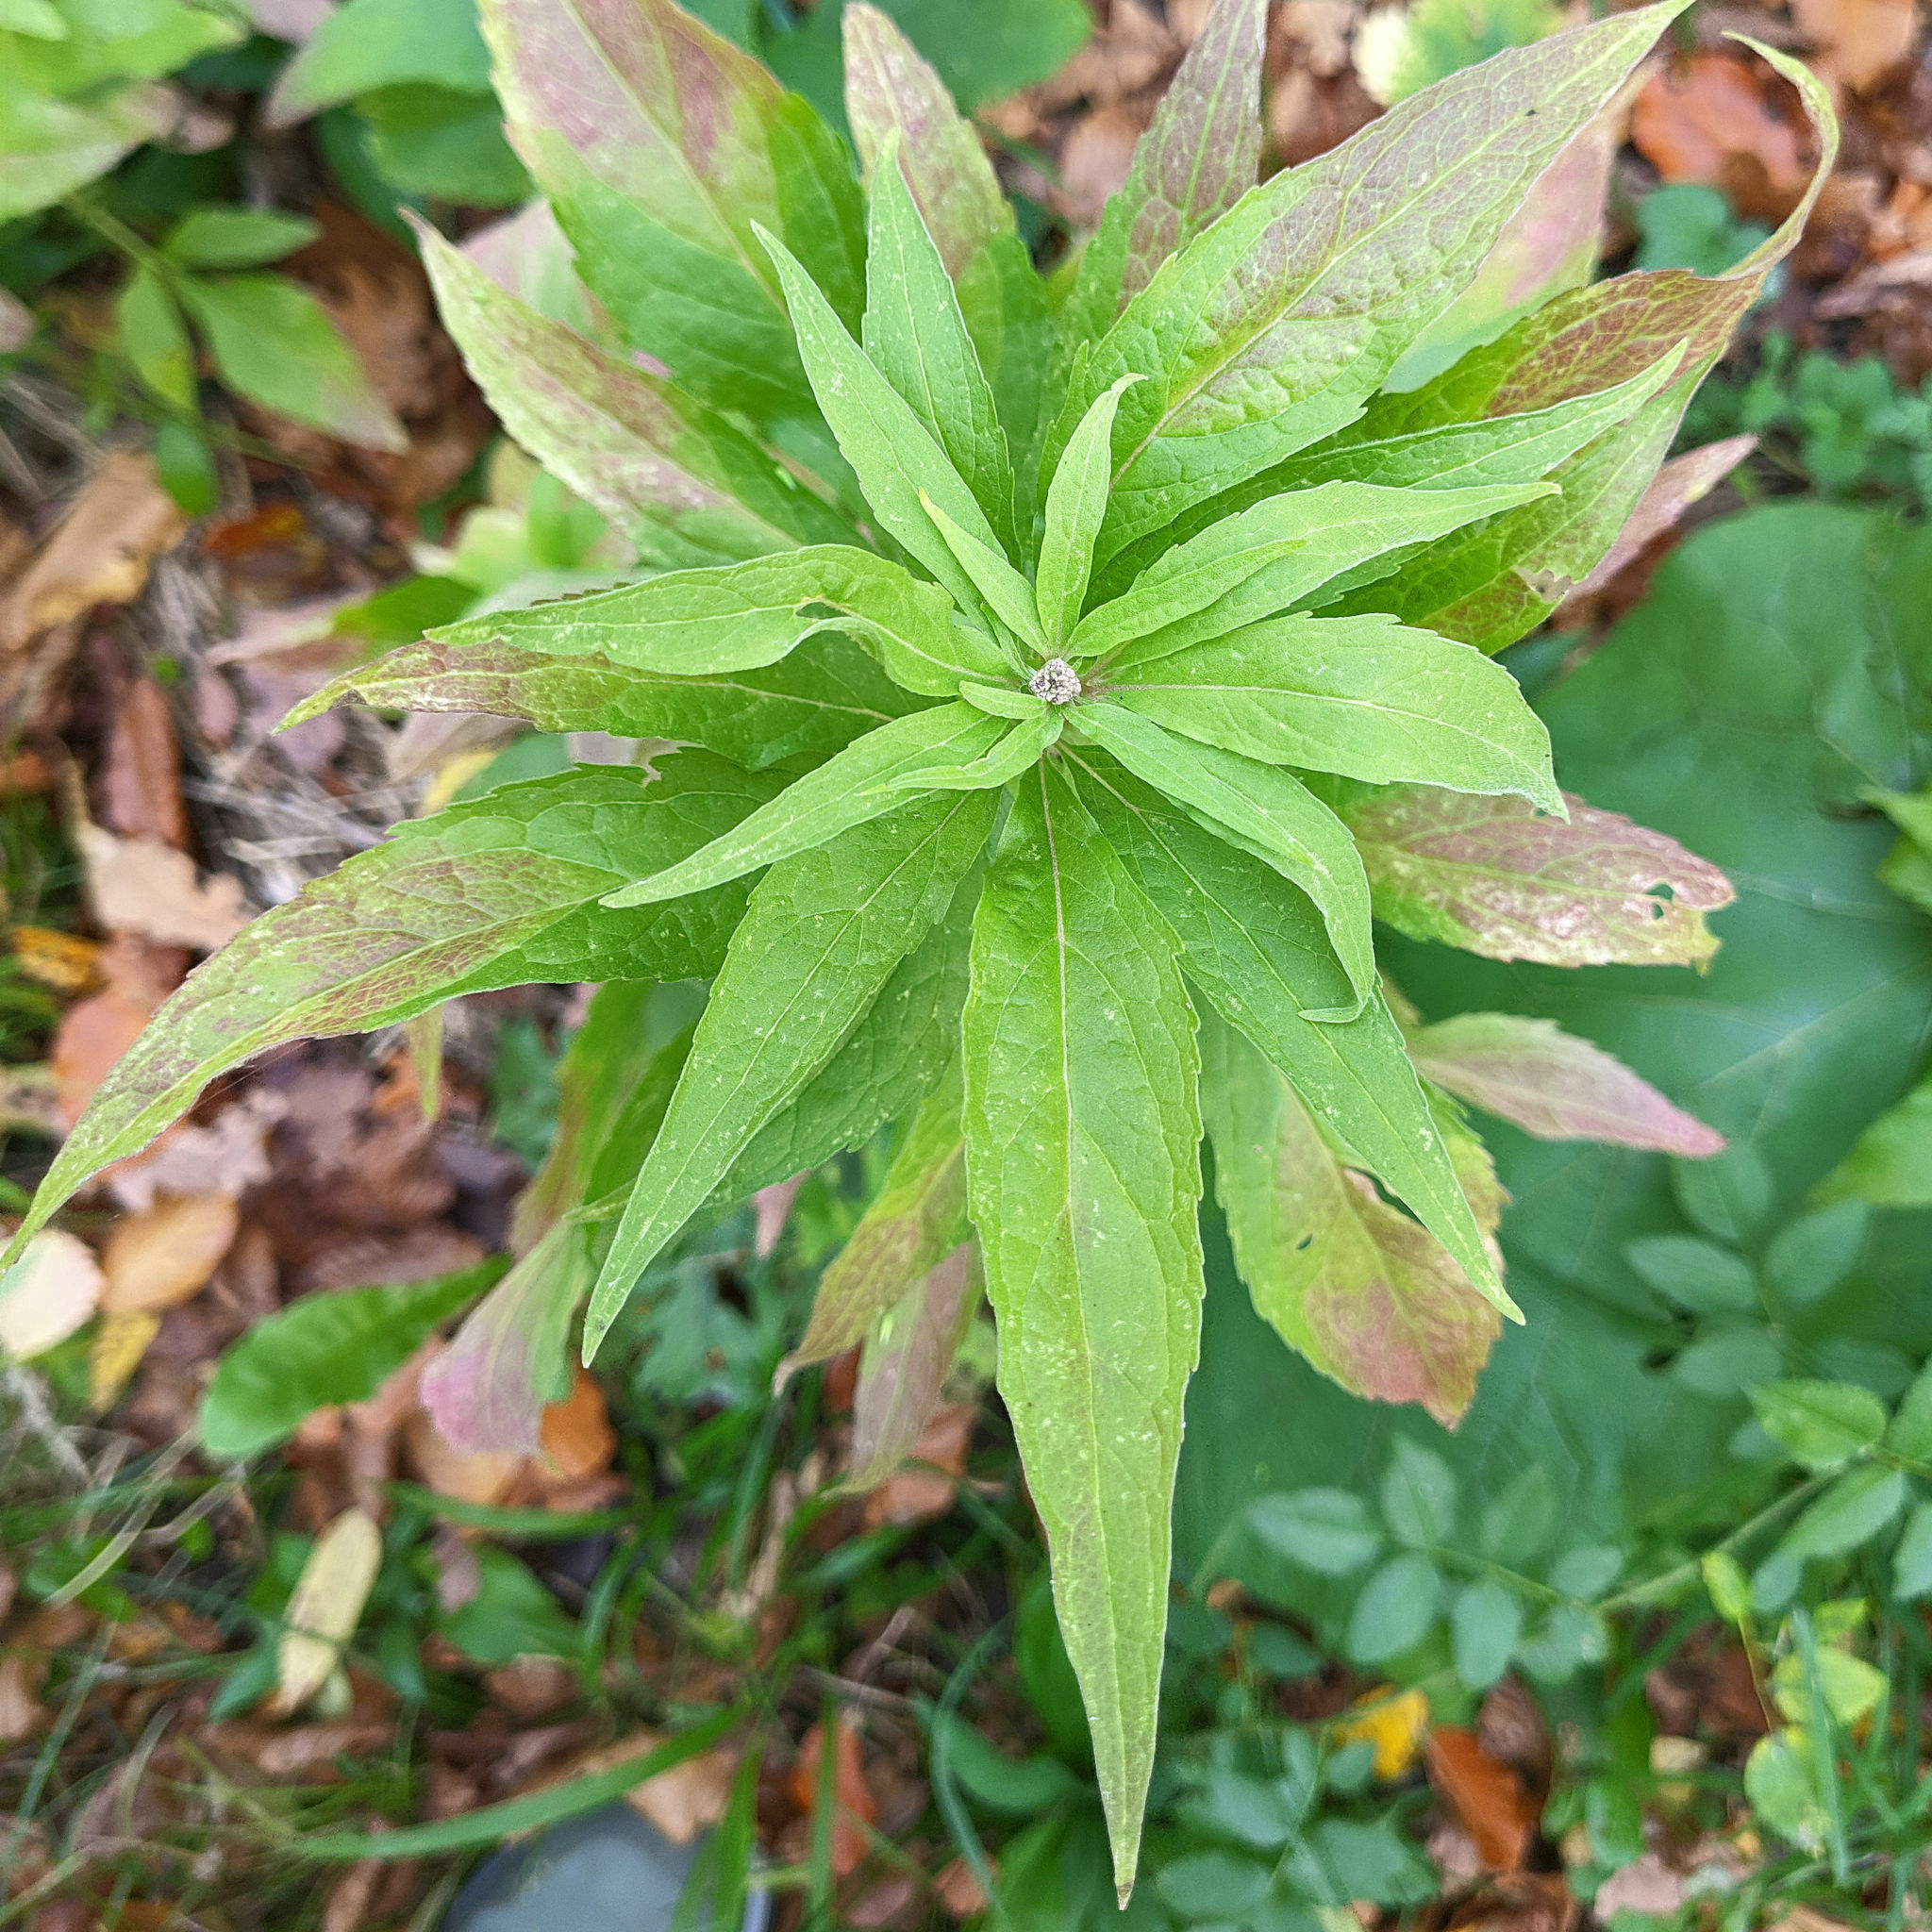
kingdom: Plantae
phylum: Tracheophyta
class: Magnoliopsida
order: Asterales
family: Asteraceae
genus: Eupatorium
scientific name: Eupatorium cannabinum
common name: Hemp-agrimony
